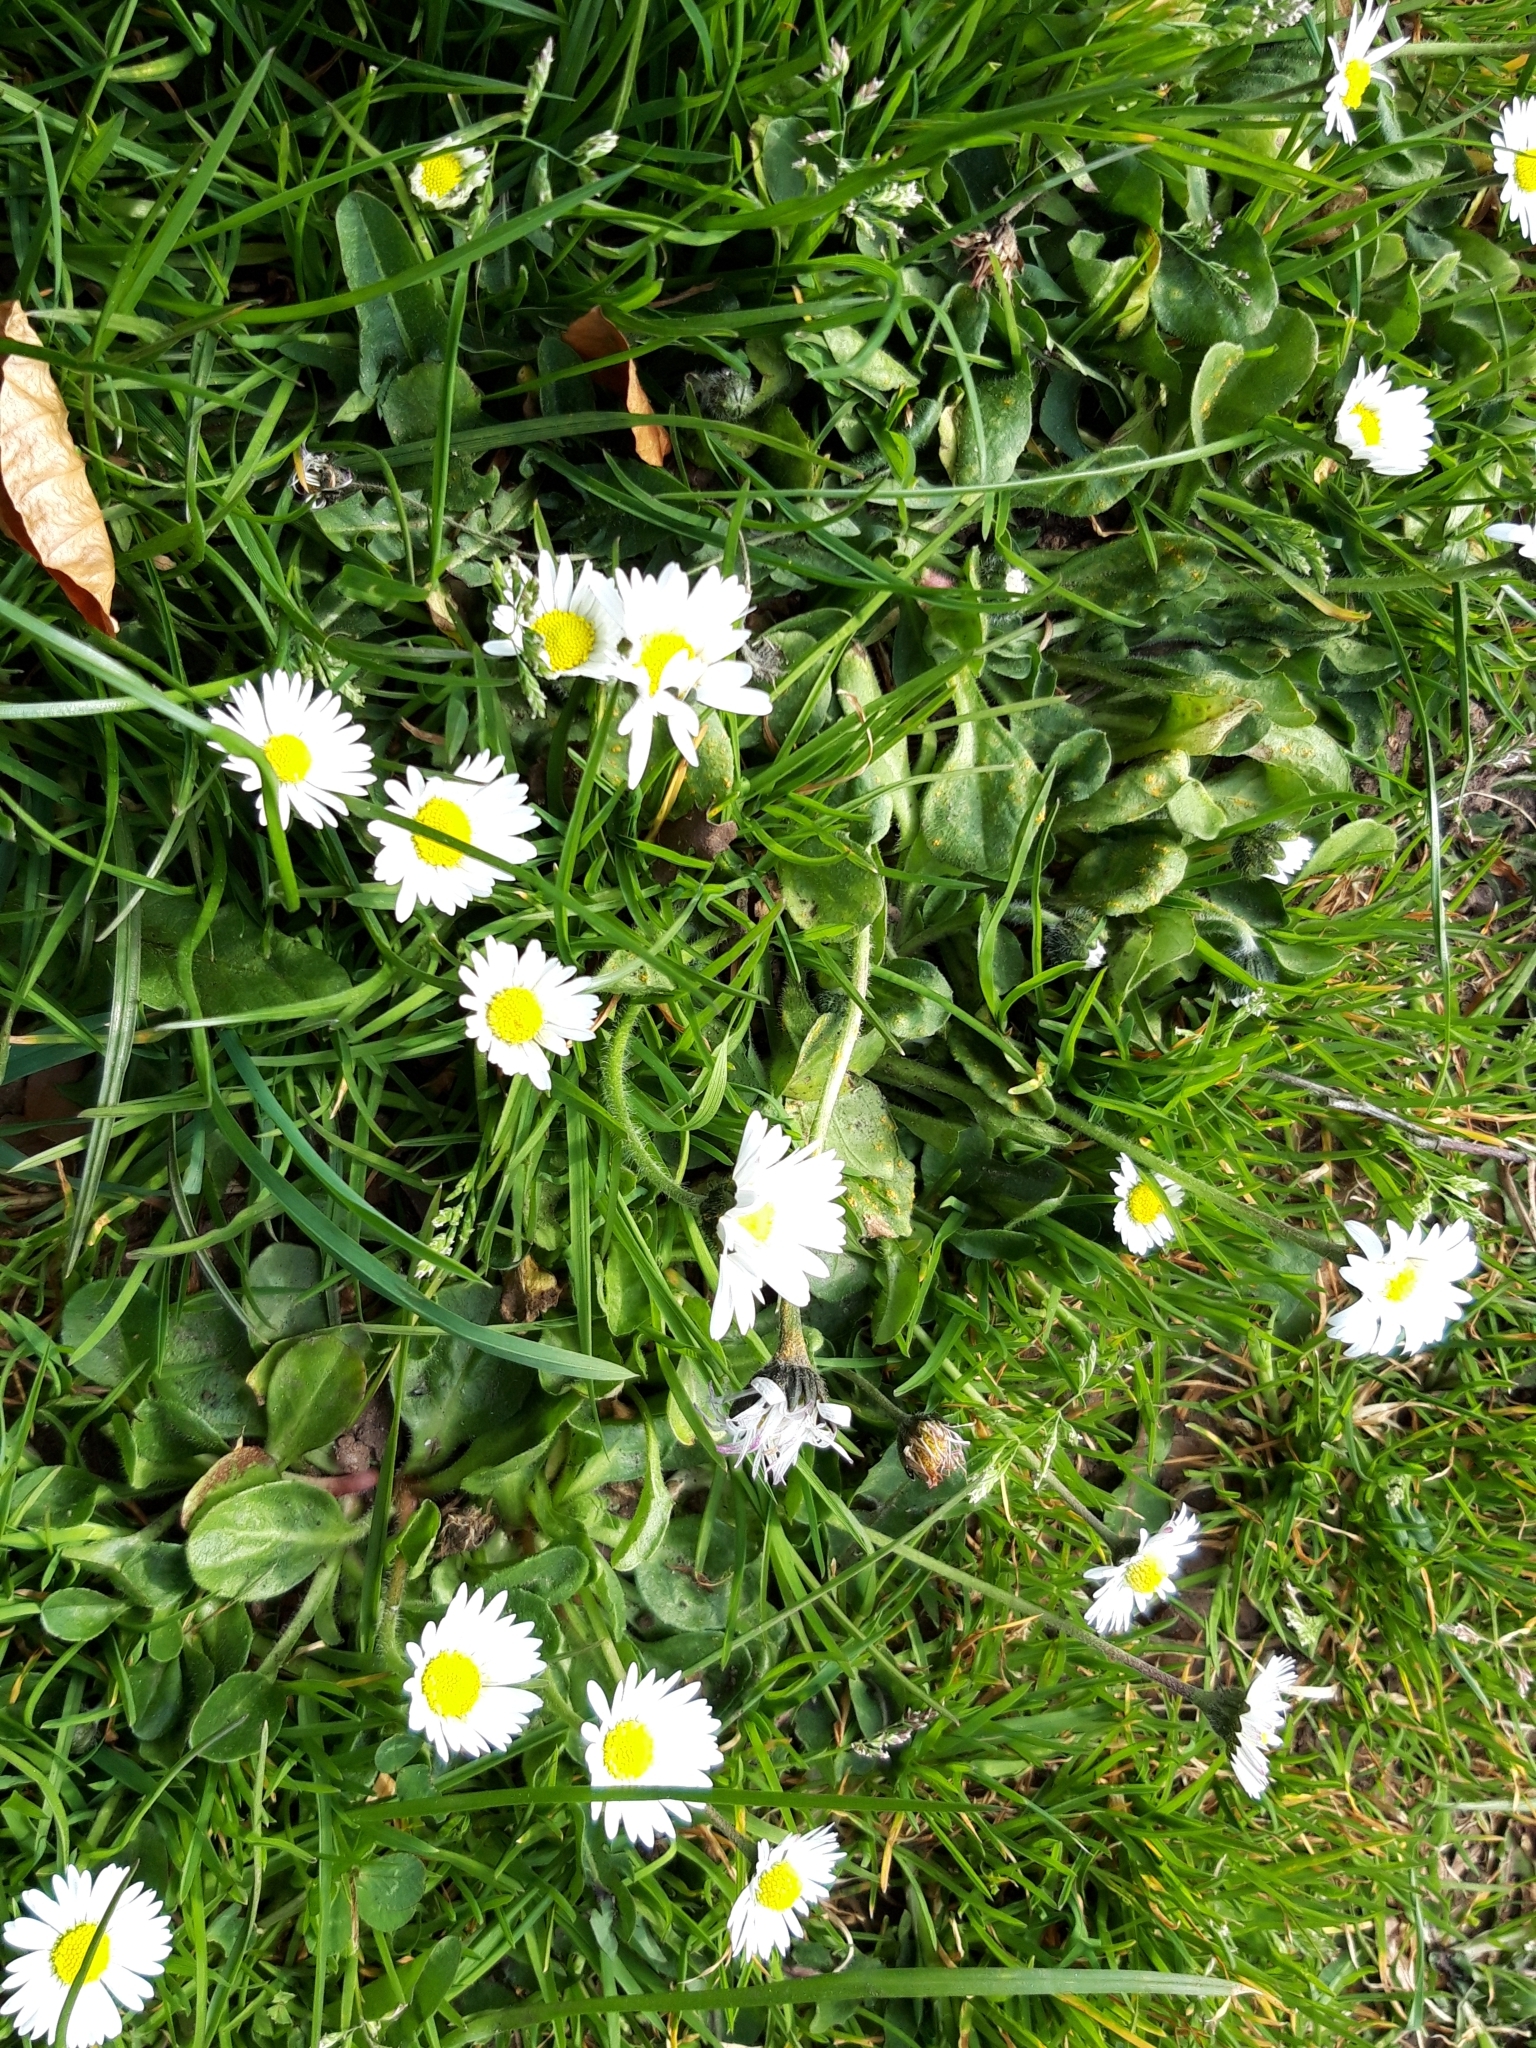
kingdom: Plantae
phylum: Tracheophyta
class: Magnoliopsida
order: Asterales
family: Asteraceae
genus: Bellis
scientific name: Bellis perennis
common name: Lawndaisy
